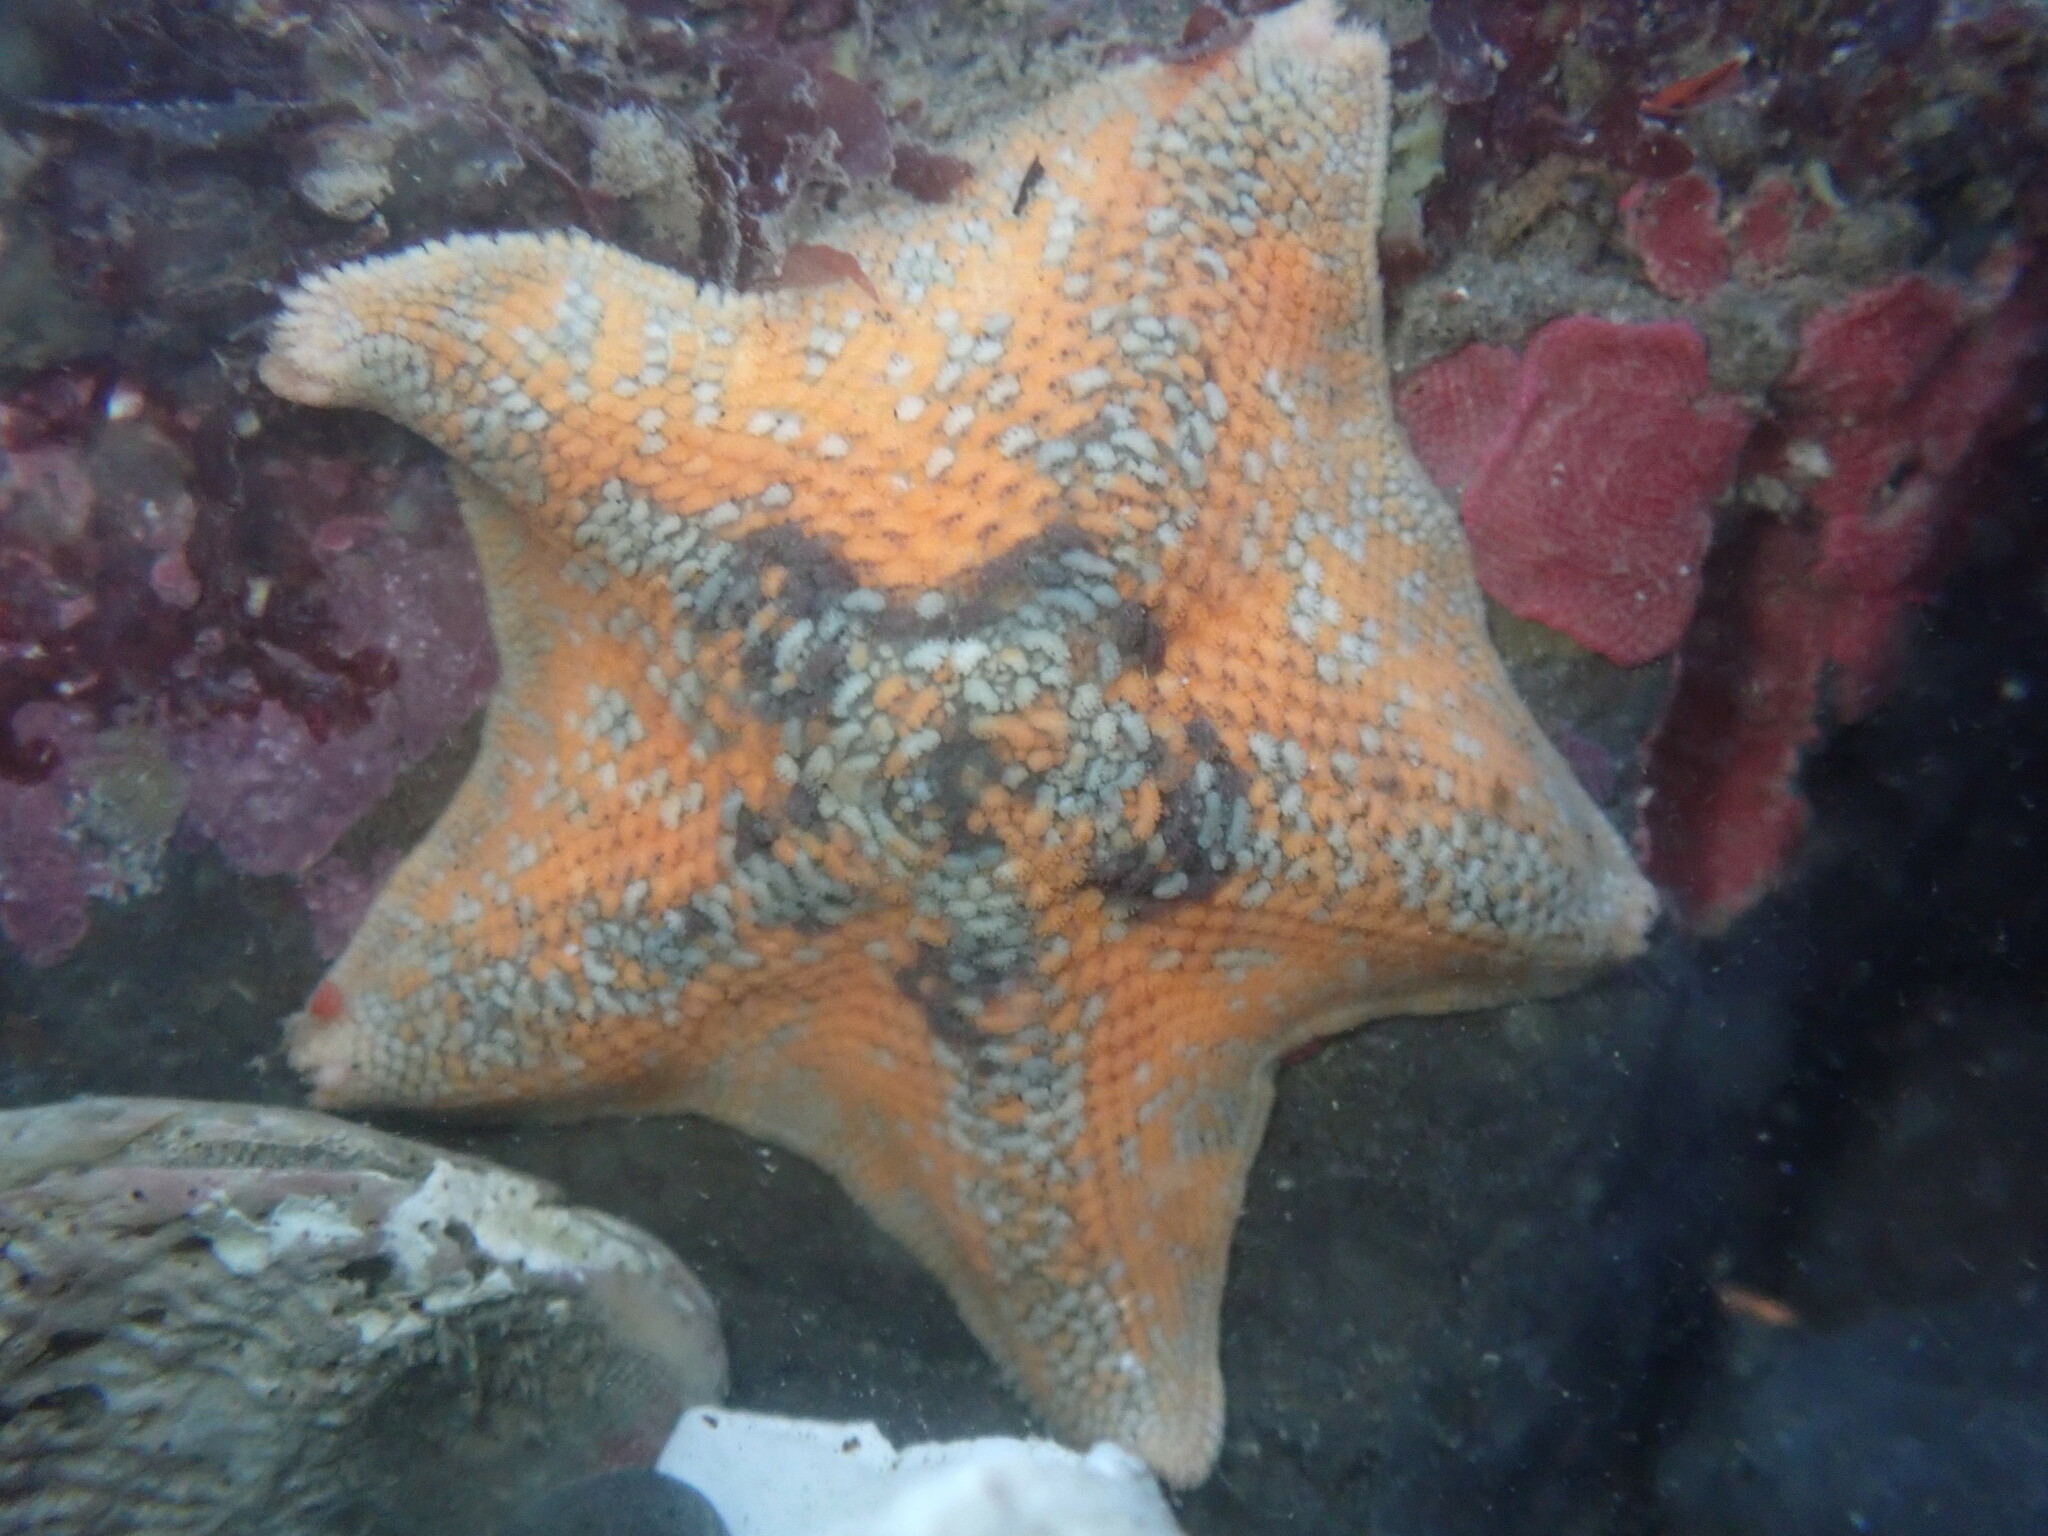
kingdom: Animalia
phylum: Echinodermata
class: Asteroidea
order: Valvatida
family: Asterinidae
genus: Patiria
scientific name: Patiria miniata
